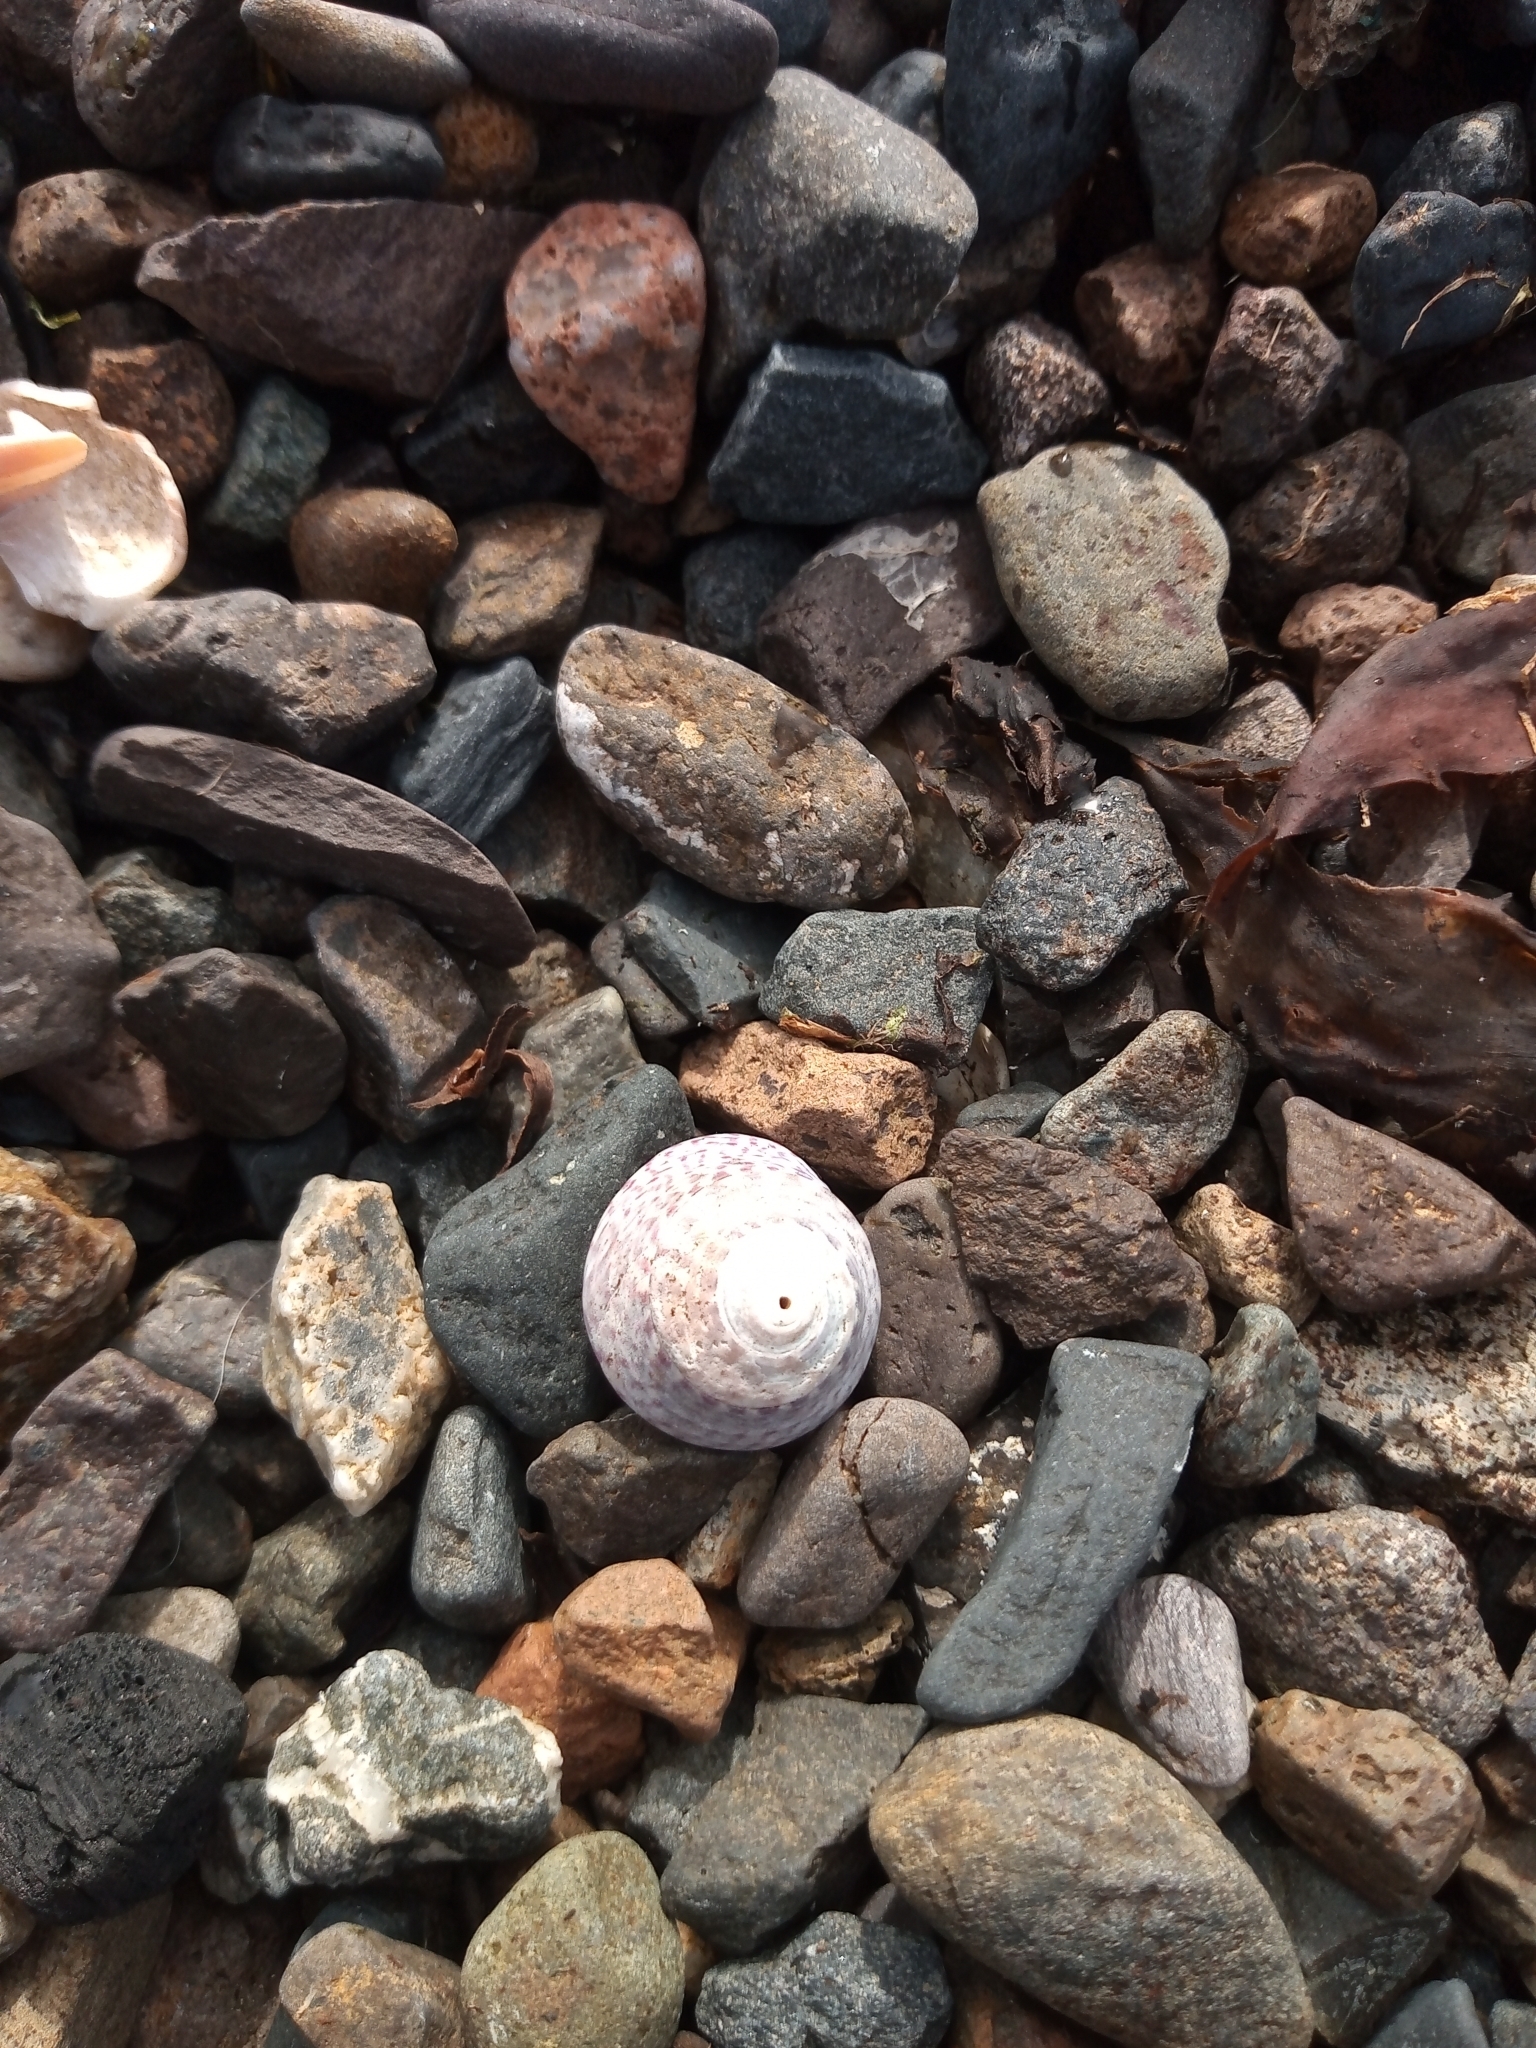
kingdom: Animalia
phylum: Mollusca
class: Gastropoda
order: Trochida
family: Trochidae
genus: Steromphala
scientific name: Steromphala umbilicalis
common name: Flat top shell
